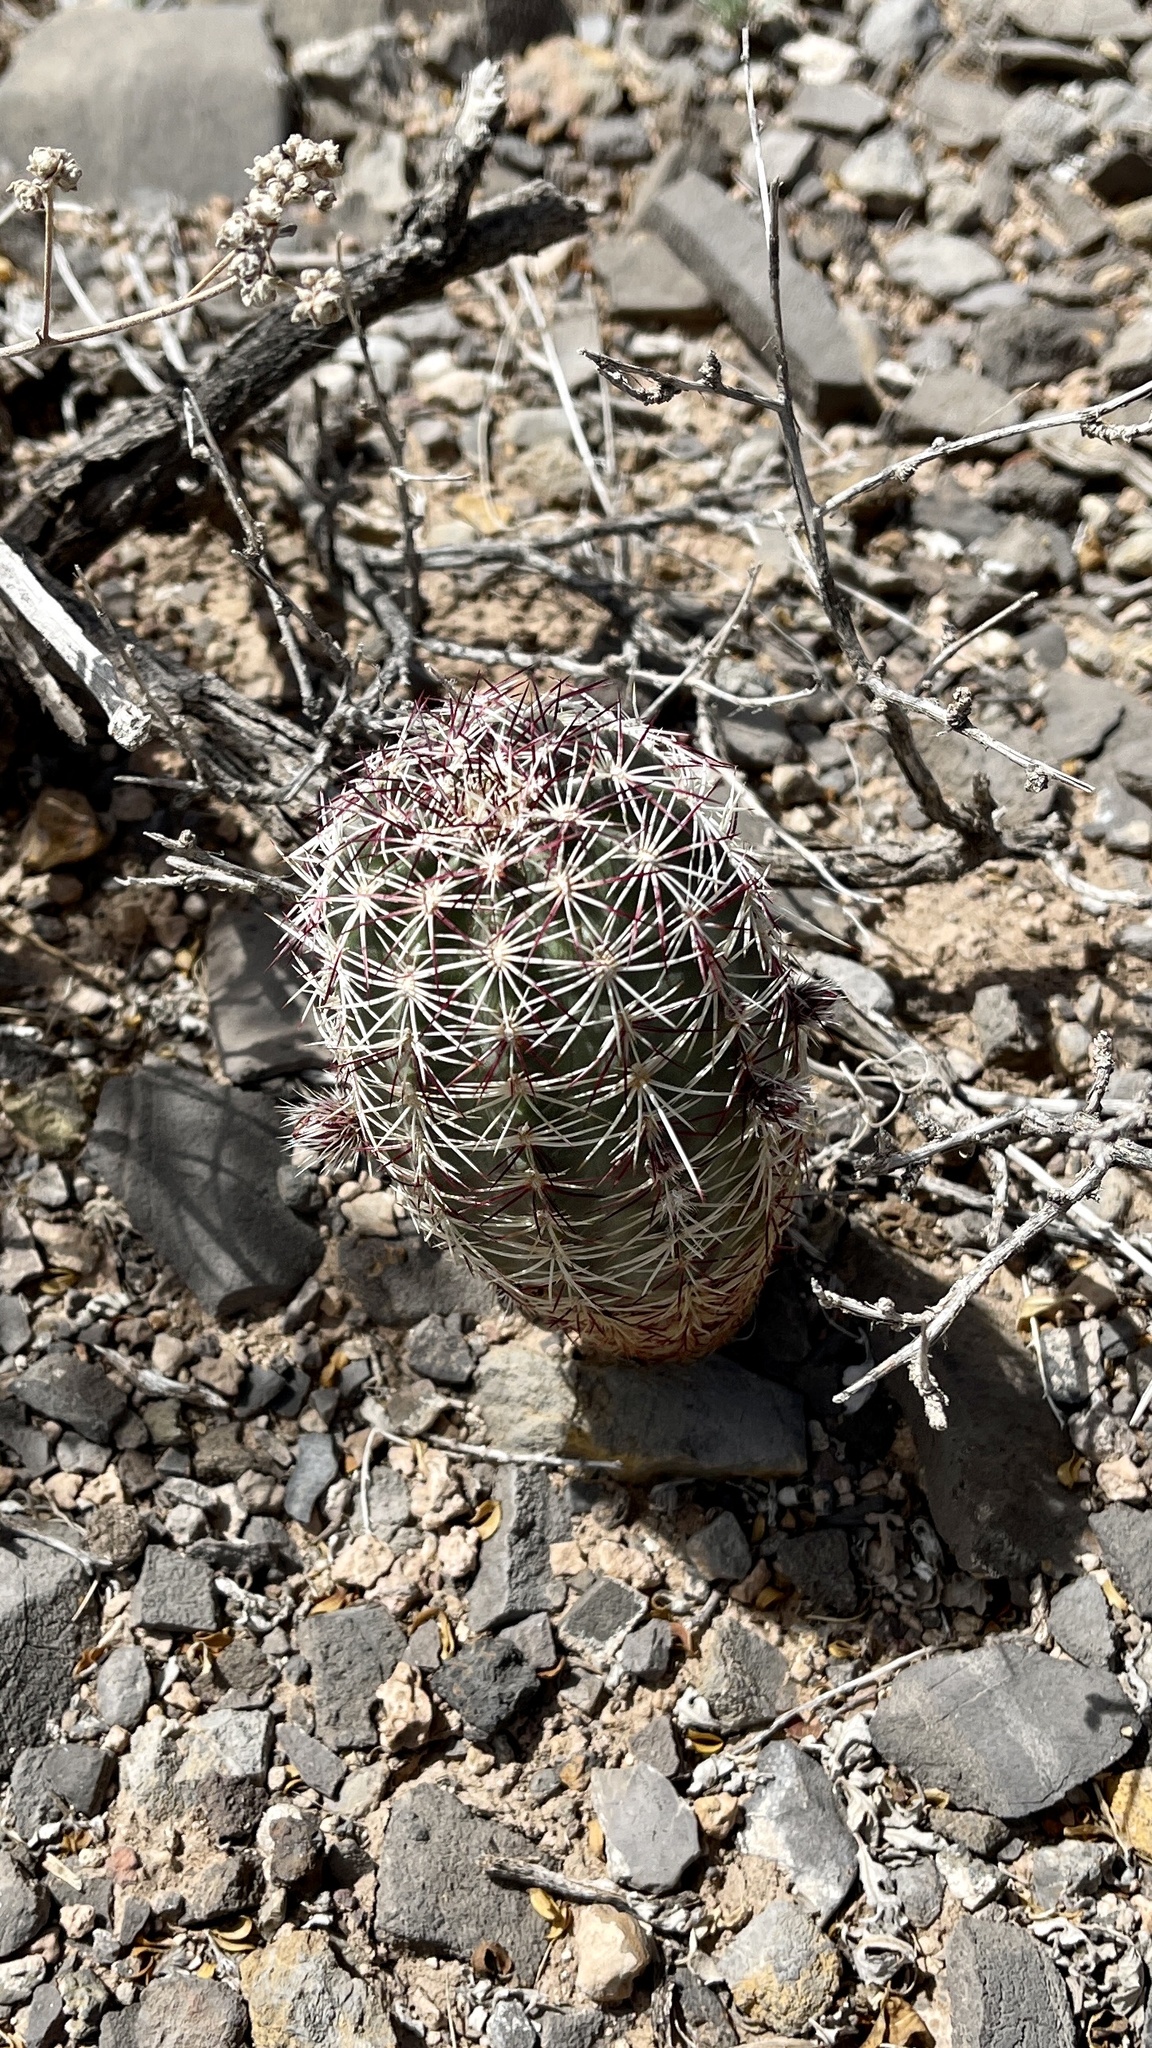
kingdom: Plantae
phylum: Tracheophyta
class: Magnoliopsida
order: Caryophyllales
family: Cactaceae
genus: Echinocereus
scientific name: Echinocereus viridiflorus
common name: Nylon hedgehog cactus
